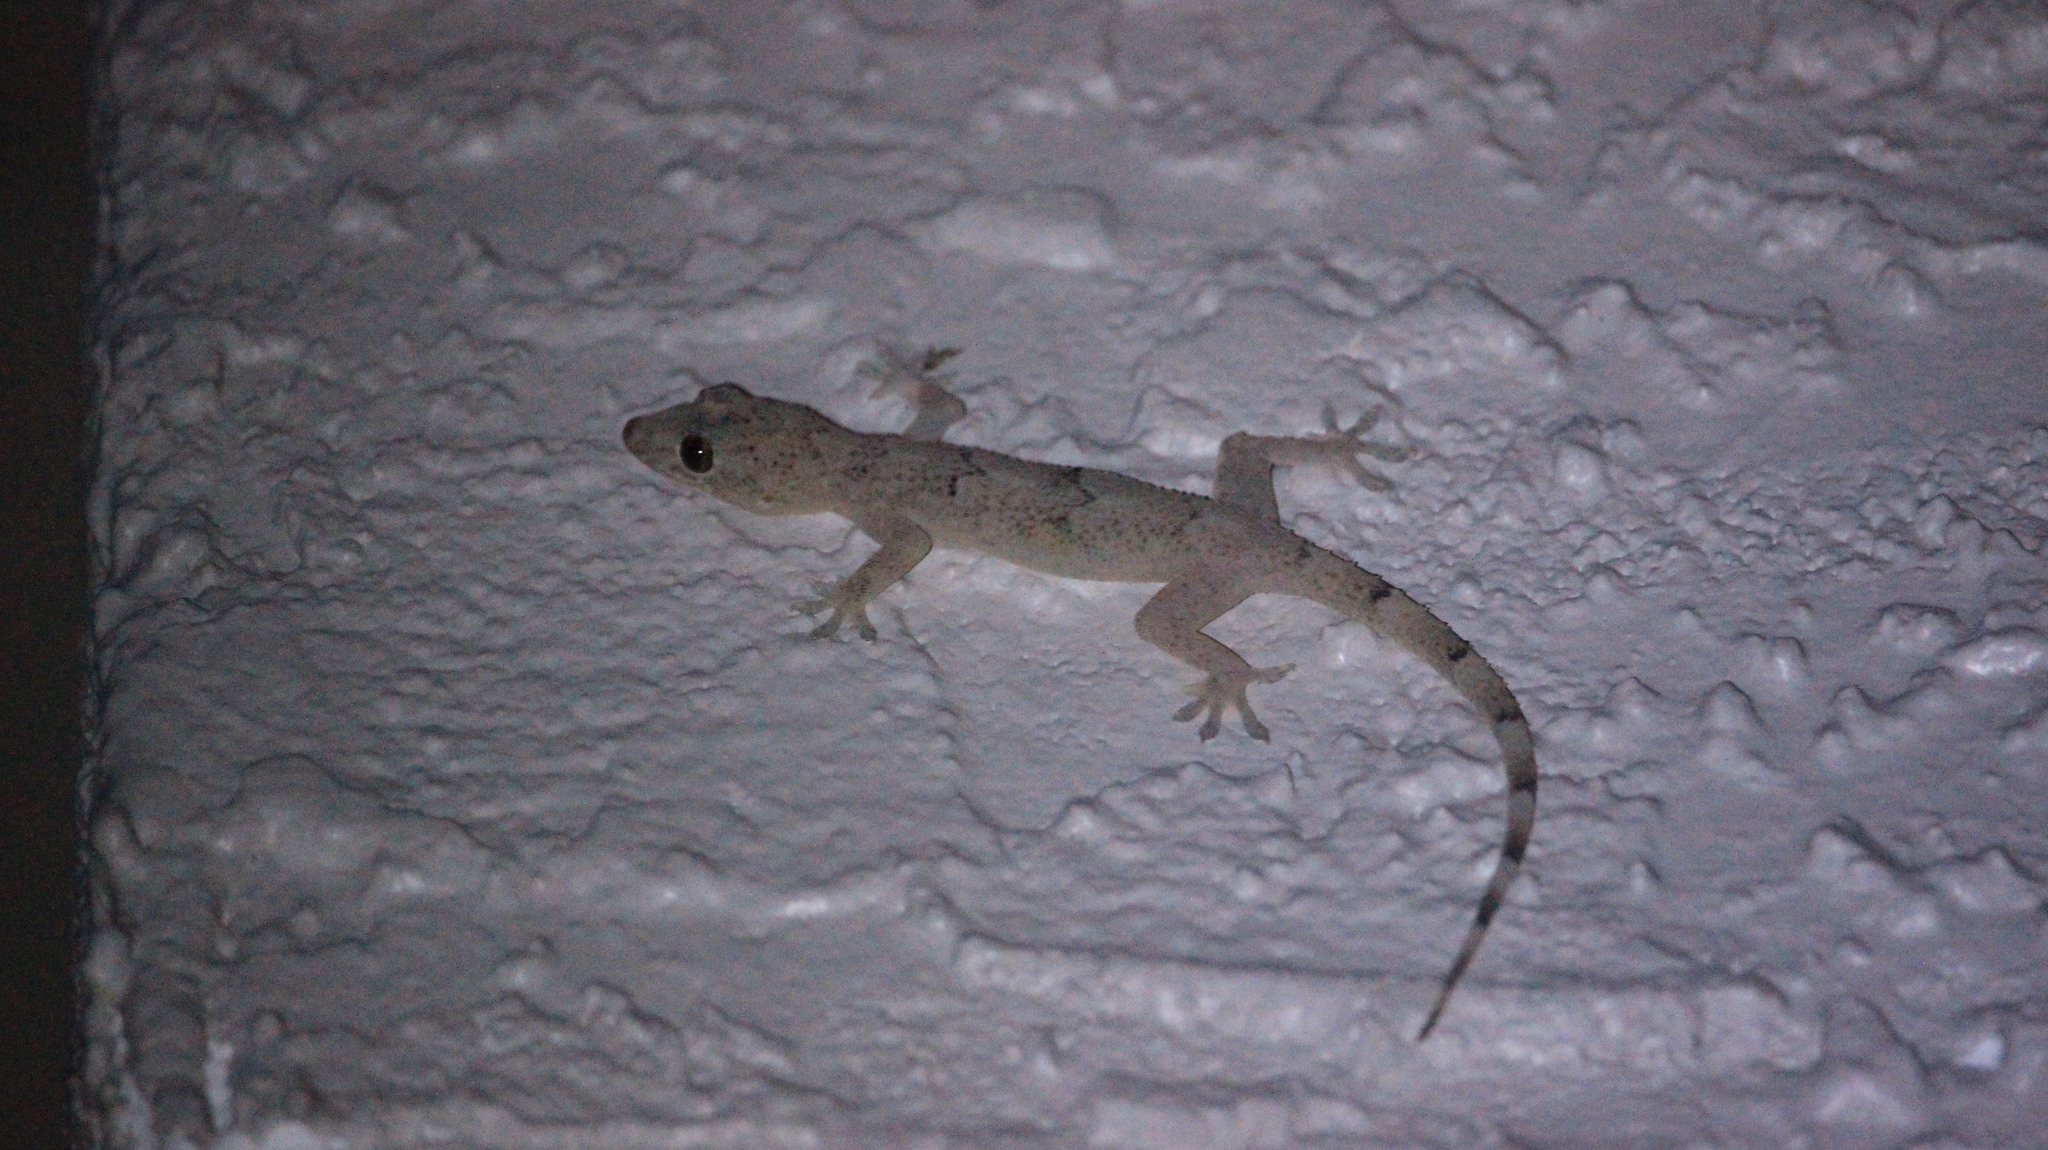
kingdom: Animalia
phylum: Chordata
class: Squamata
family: Gekkonidae
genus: Hemidactylus
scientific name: Hemidactylus mabouia
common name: House gecko
